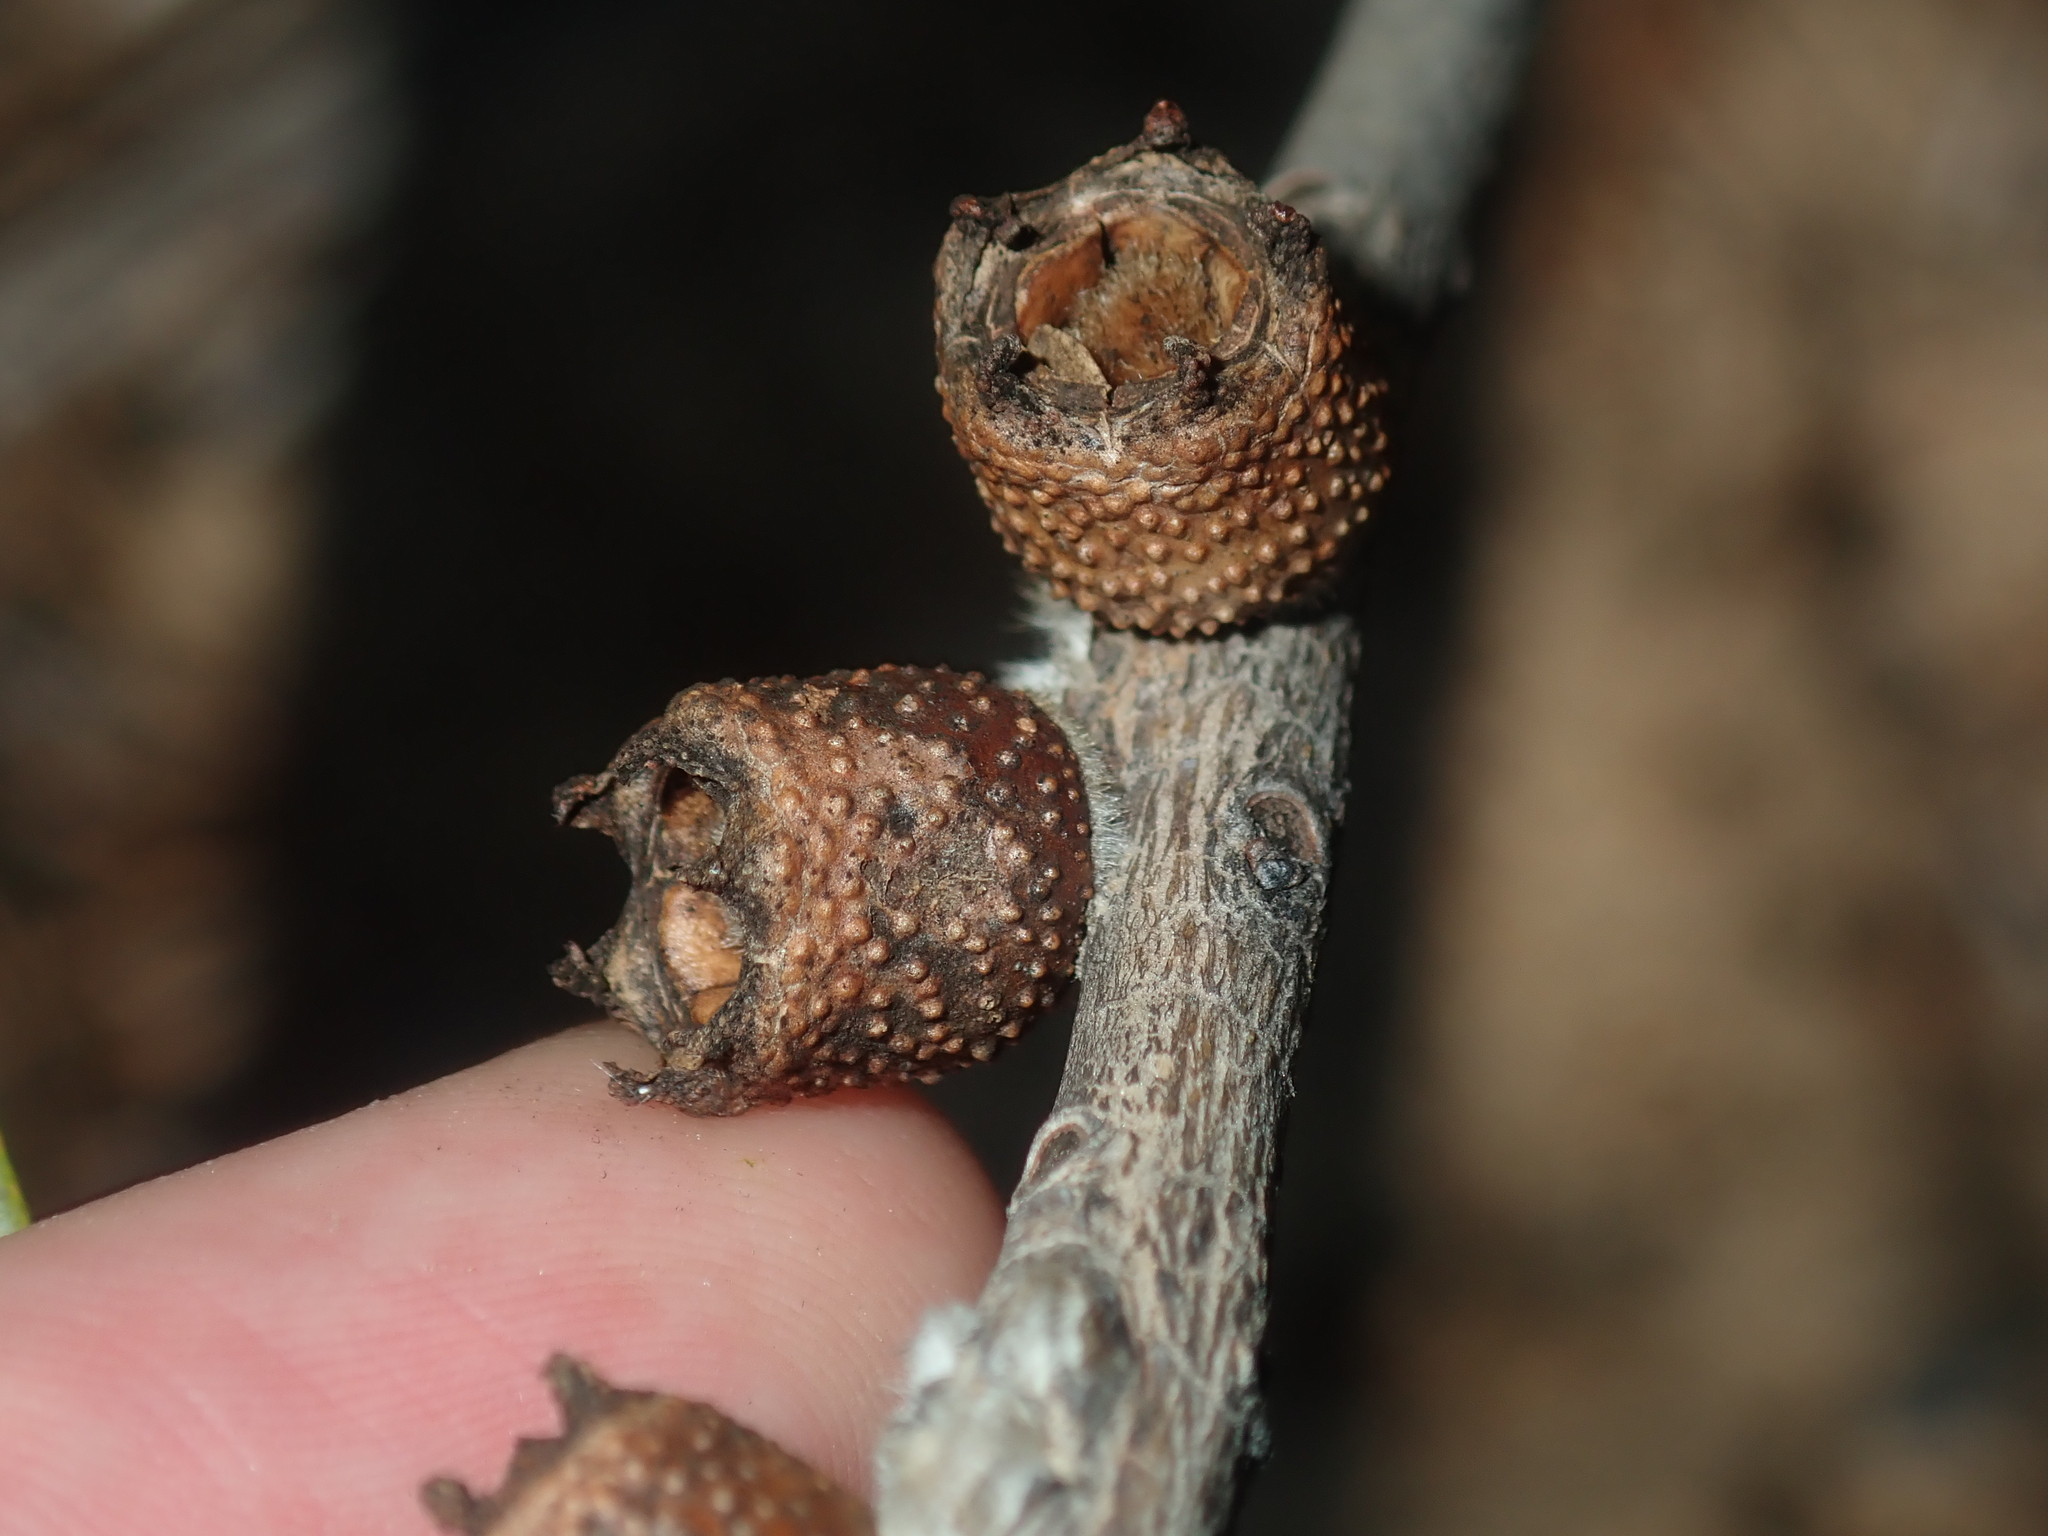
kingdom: Plantae
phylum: Tracheophyta
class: Magnoliopsida
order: Myrtales
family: Myrtaceae
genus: Melaleuca
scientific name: Melaleuca glabra
